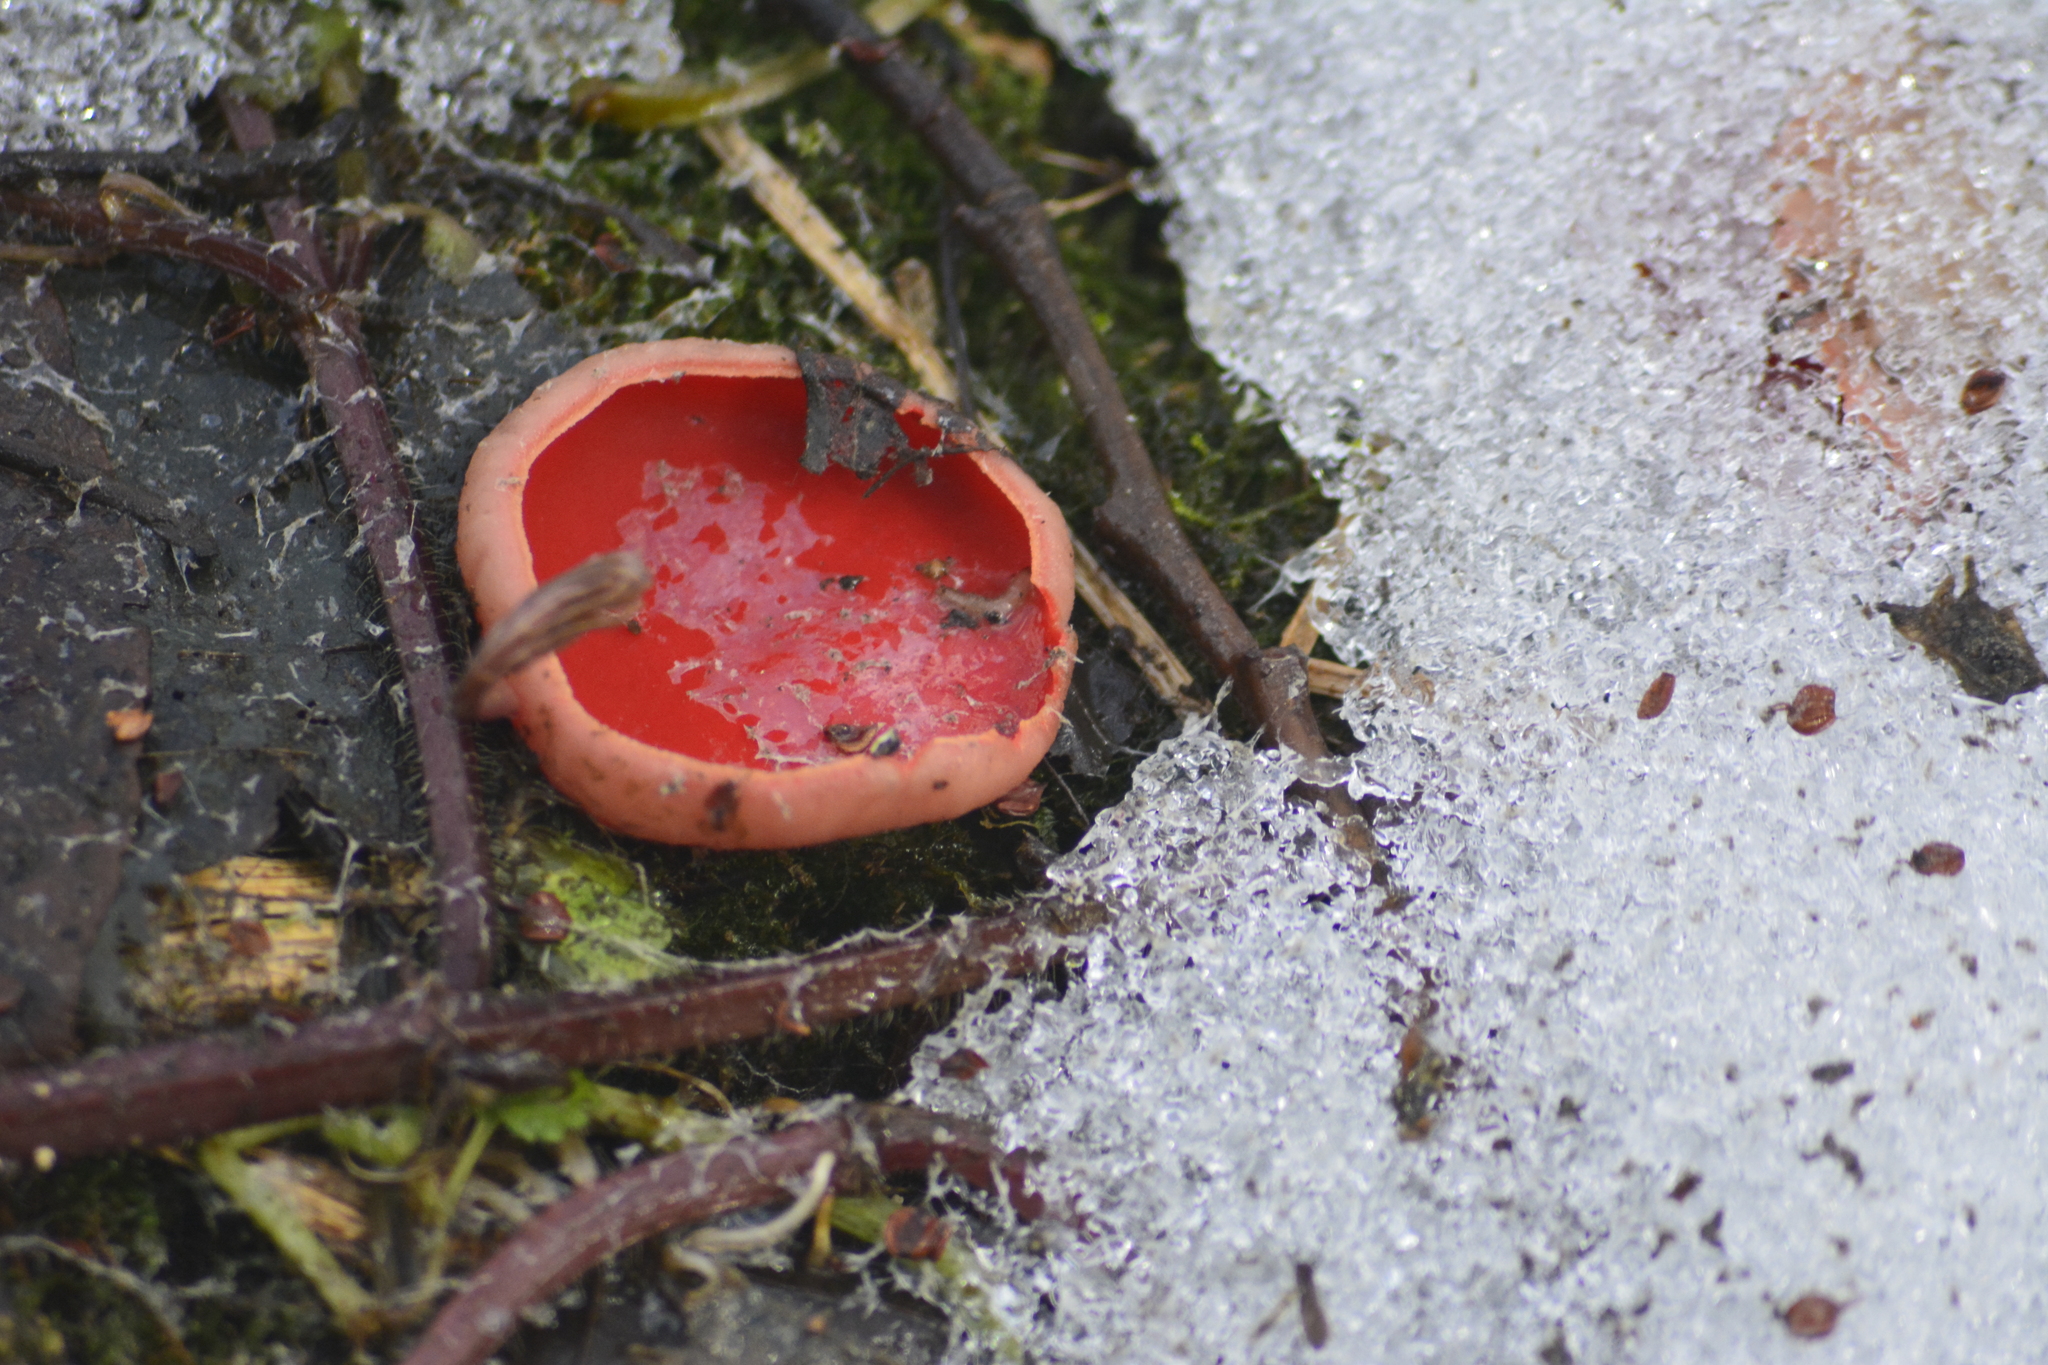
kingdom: Fungi
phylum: Ascomycota
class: Pezizomycetes
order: Pezizales
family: Sarcoscyphaceae
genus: Sarcoscypha
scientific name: Sarcoscypha austriaca
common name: Scarlet elfcup
